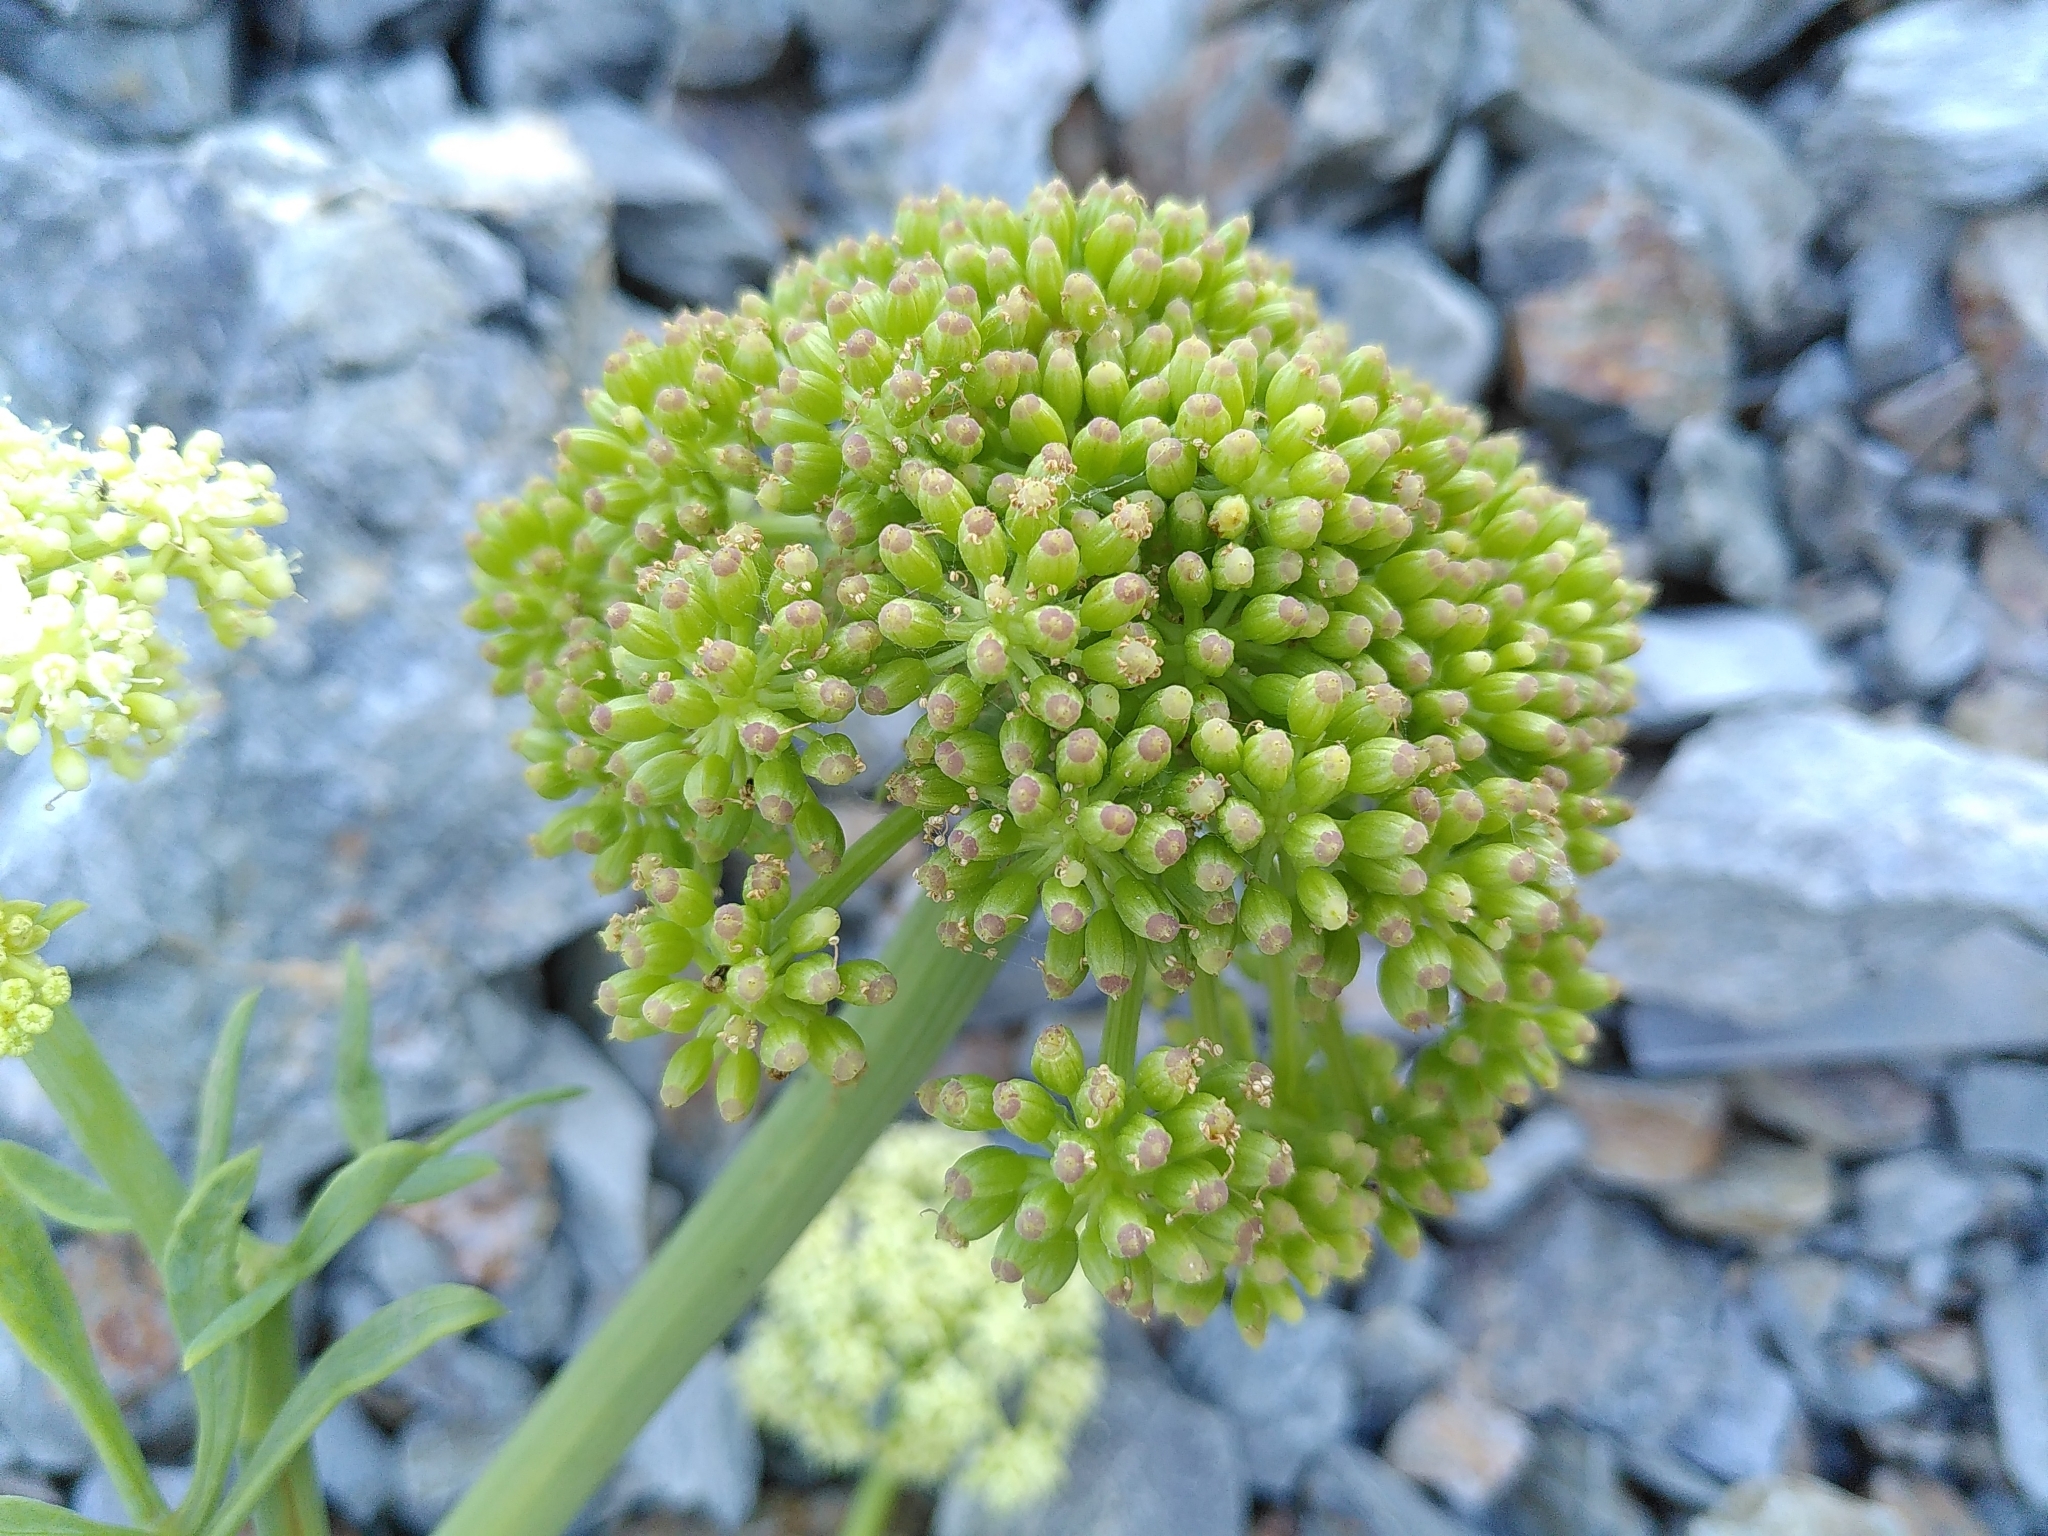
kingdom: Plantae
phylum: Tracheophyta
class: Magnoliopsida
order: Apiales
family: Apiaceae
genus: Crithmum
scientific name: Crithmum maritimum
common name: Rock samphire
